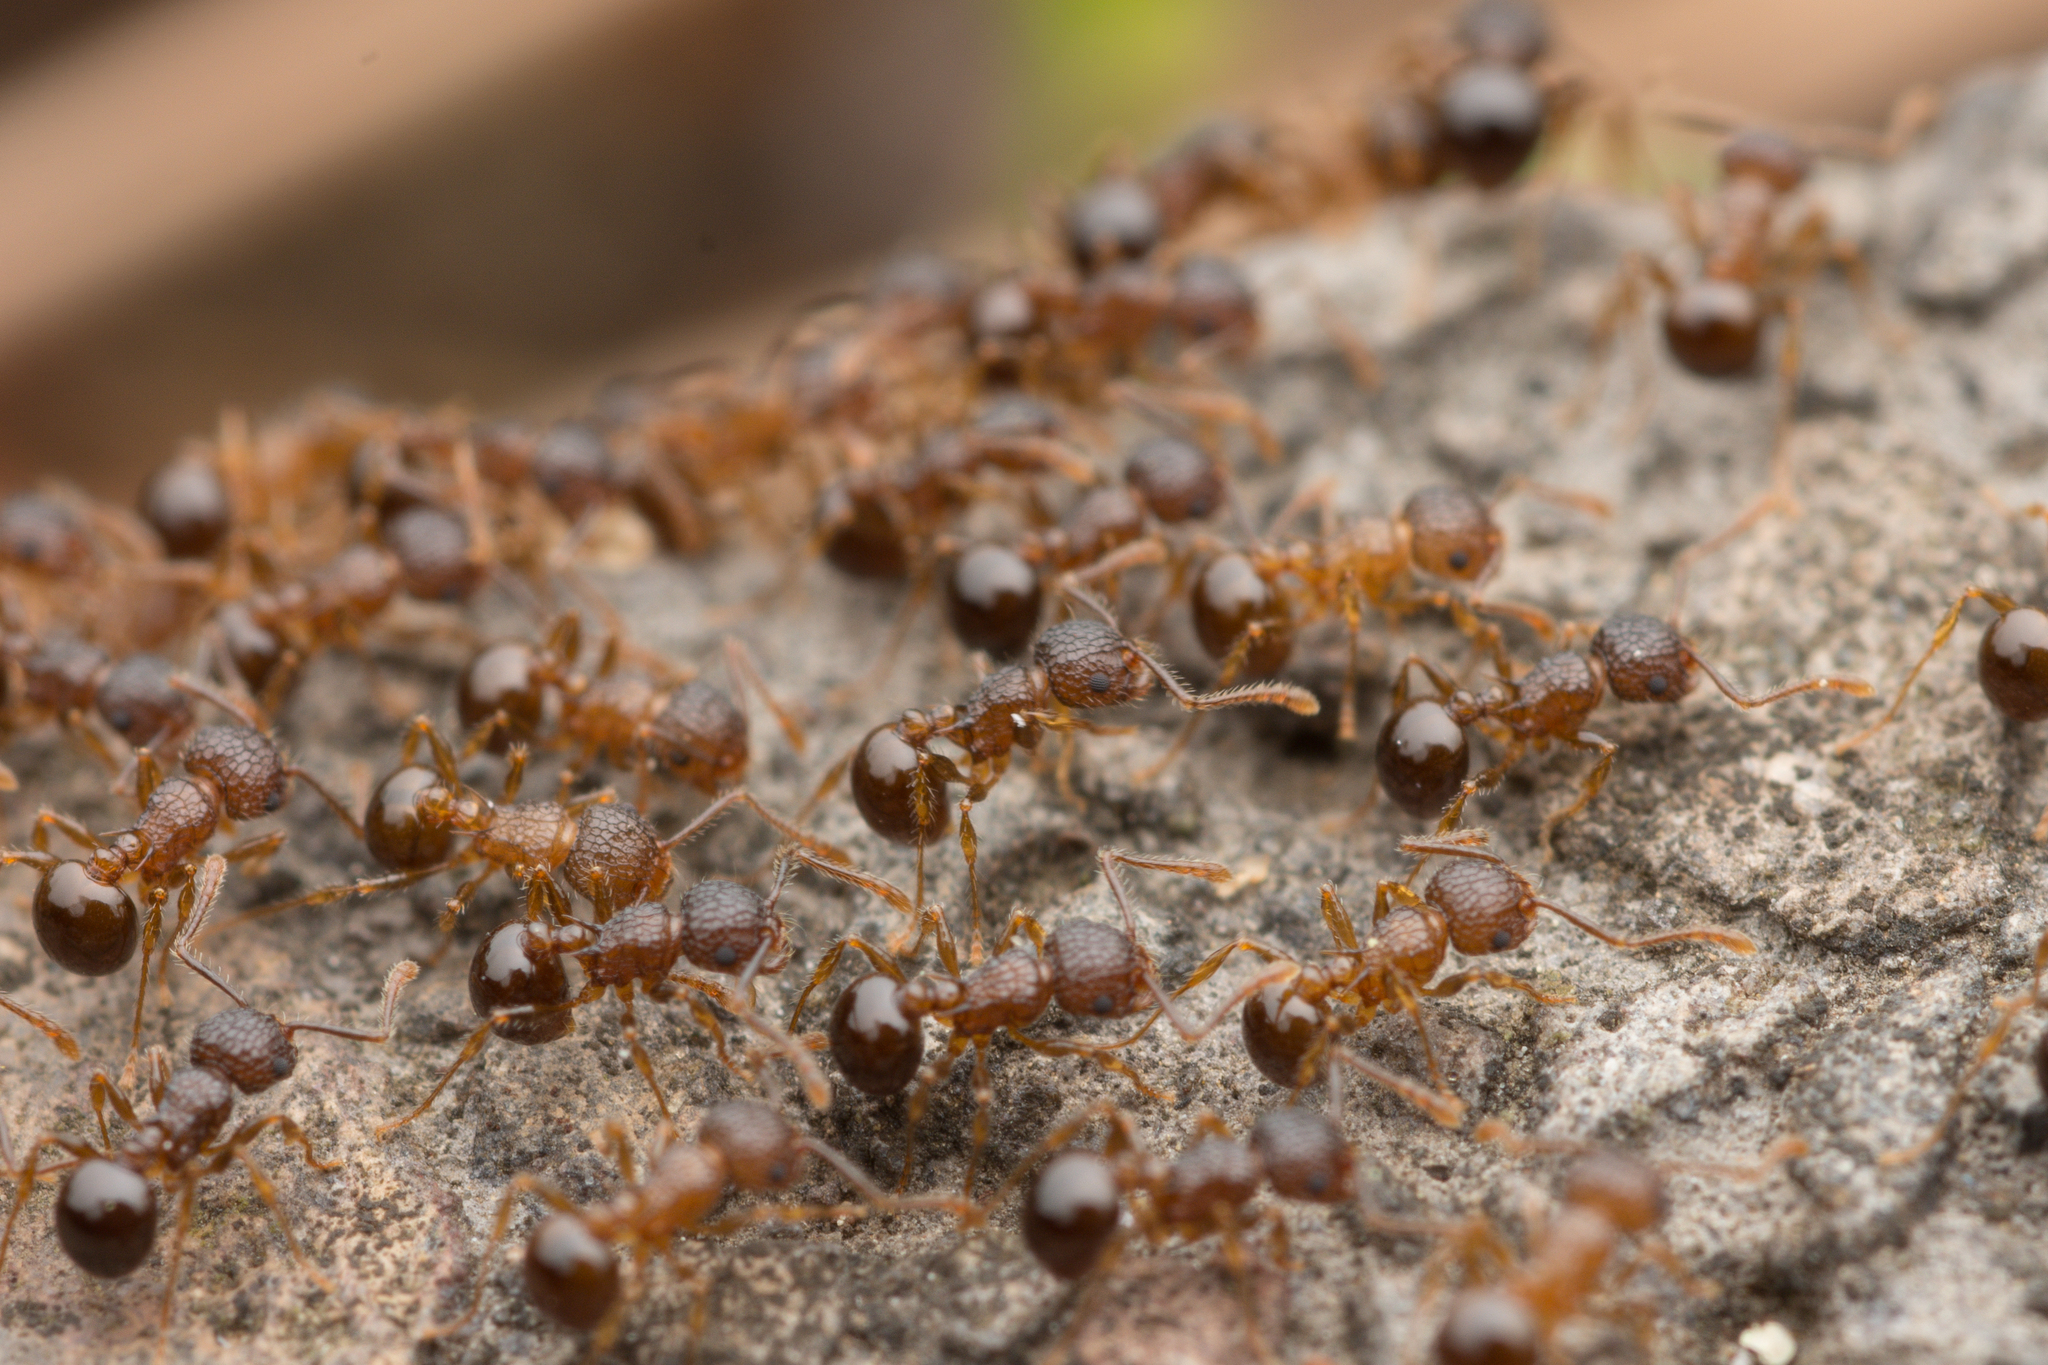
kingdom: Animalia
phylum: Arthropoda
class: Insecta
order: Hymenoptera
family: Formicidae
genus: Pristomyrmex
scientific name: Pristomyrmex punctatus
